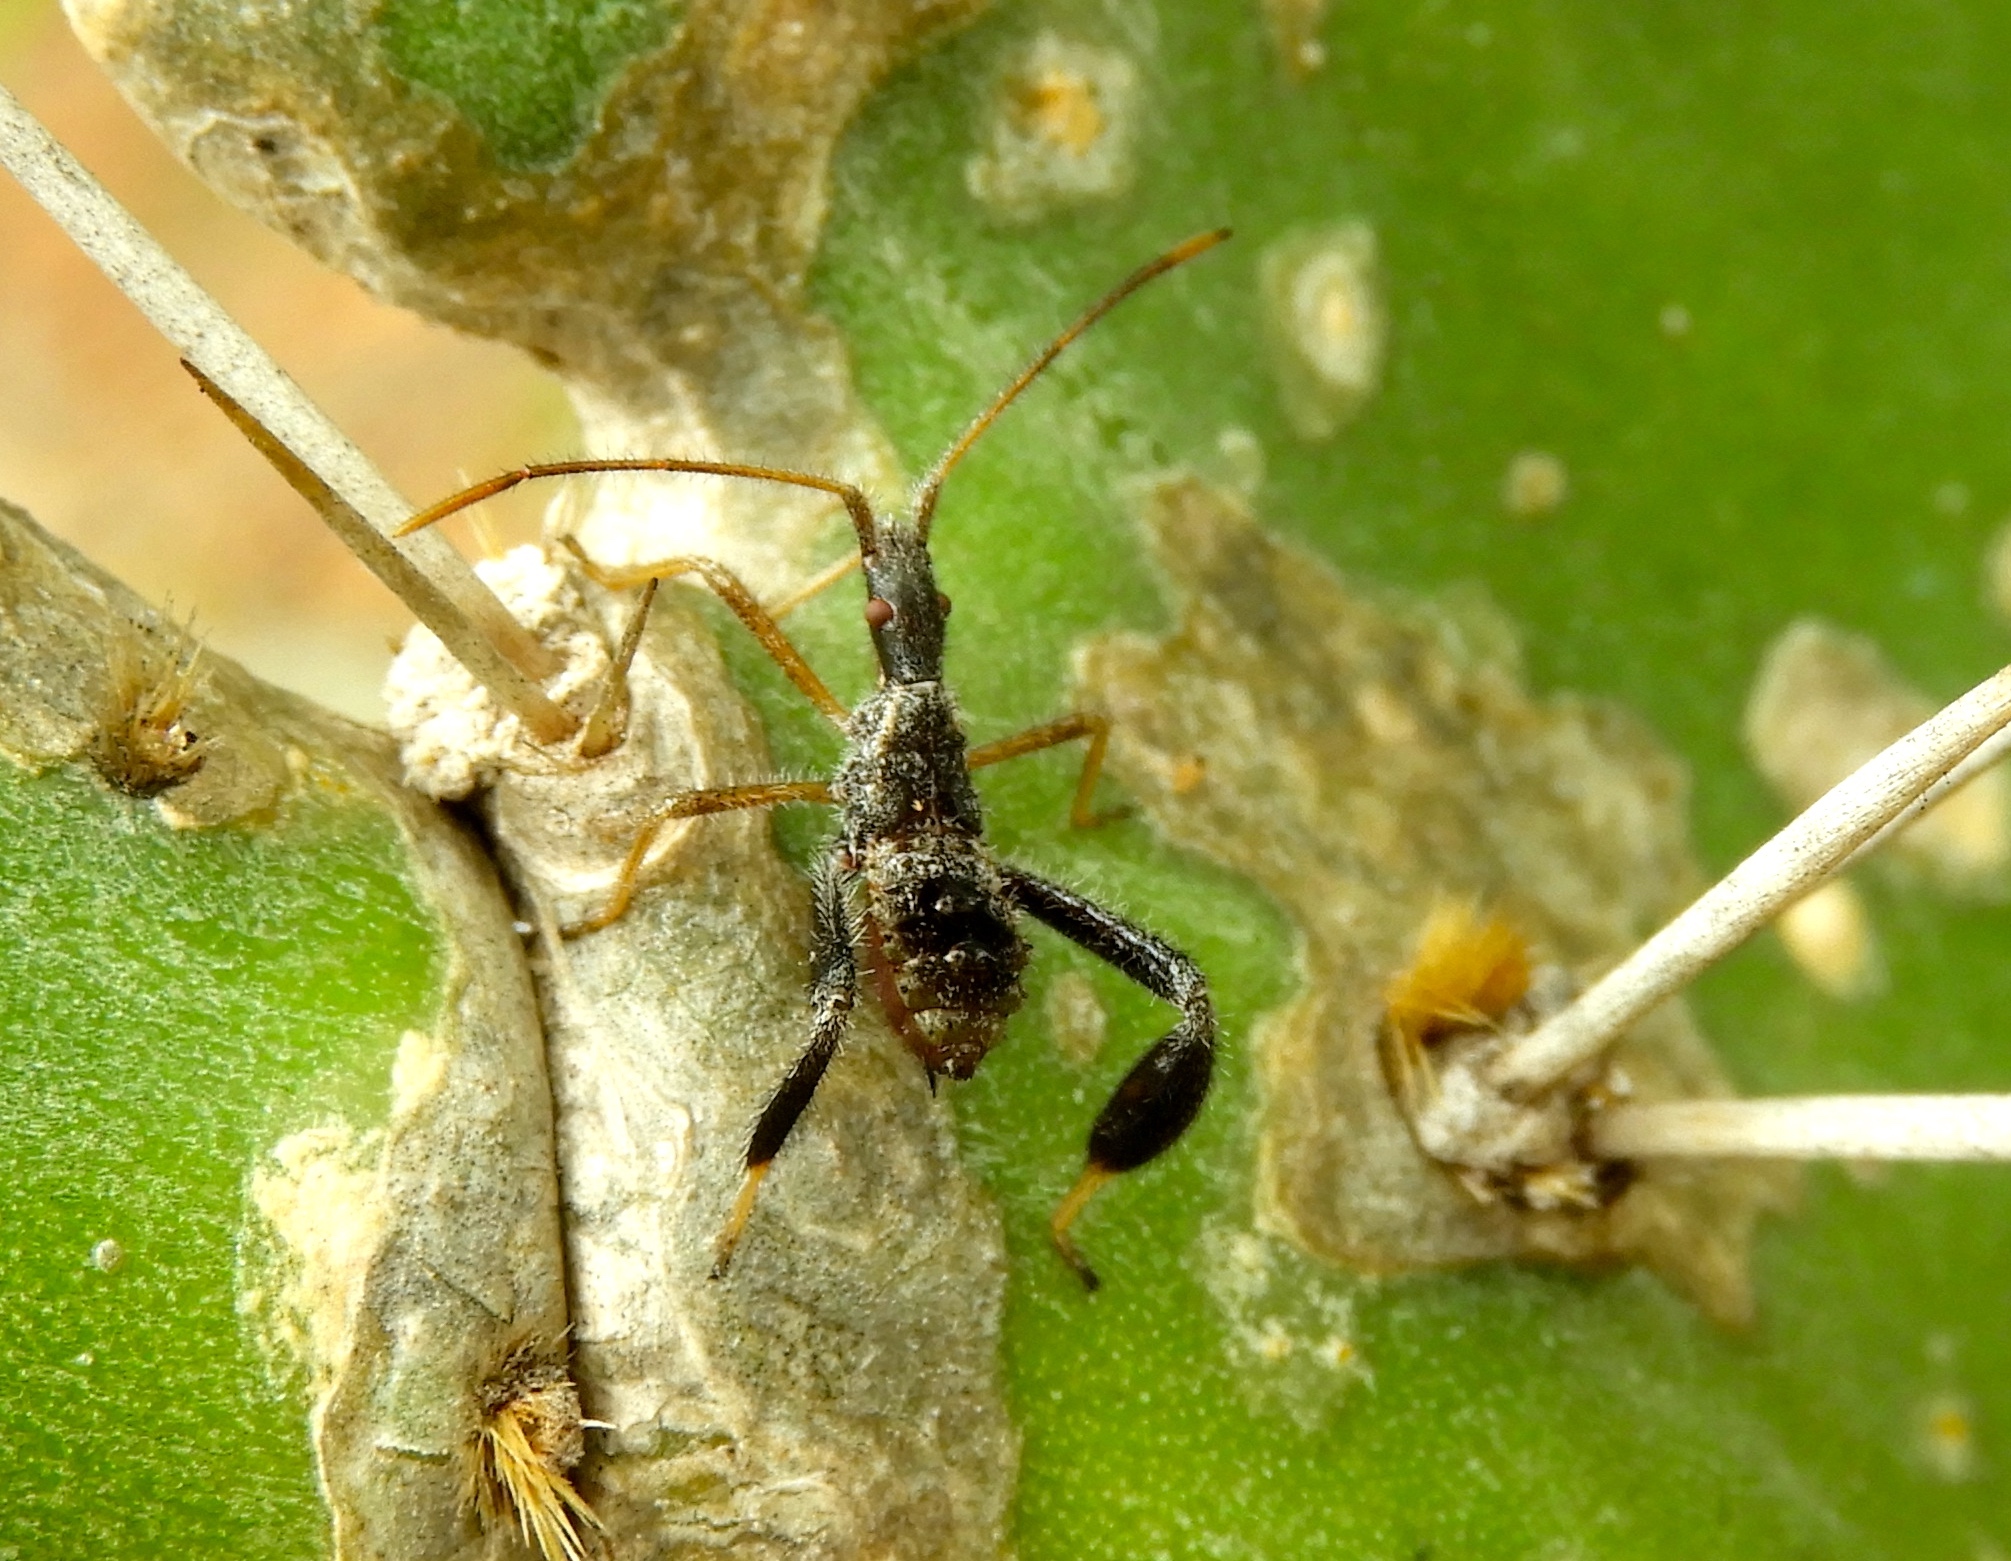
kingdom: Animalia
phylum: Arthropoda
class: Insecta
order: Hemiptera
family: Coreidae
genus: Narnia
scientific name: Narnia
